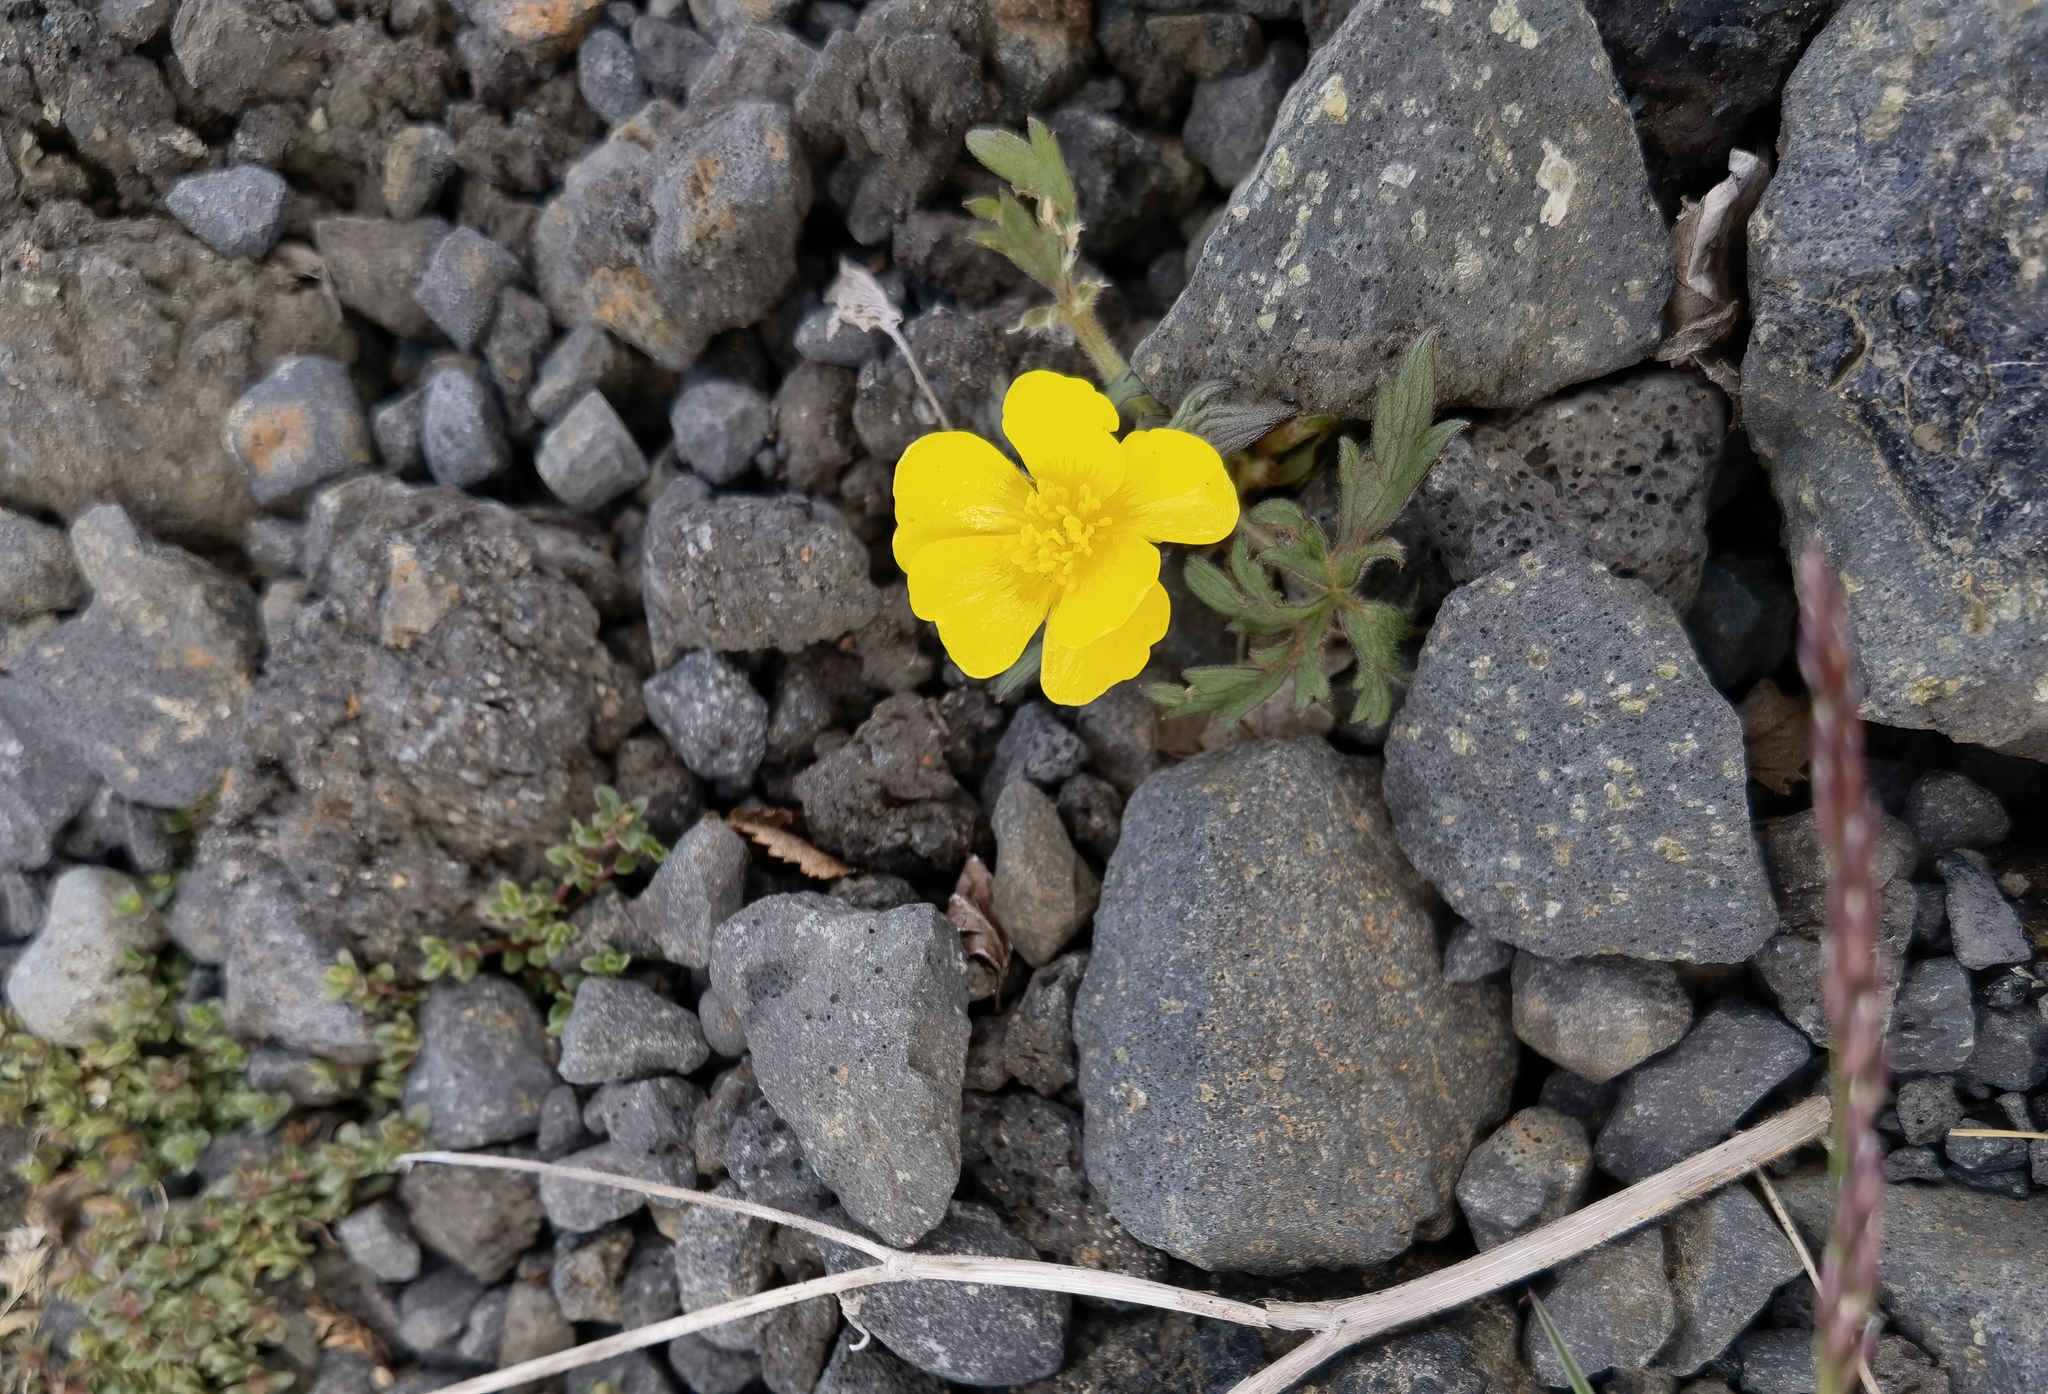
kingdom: Plantae
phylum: Tracheophyta
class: Magnoliopsida
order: Ranunculales
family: Ranunculaceae
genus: Ranunculus
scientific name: Ranunculus propinquus
